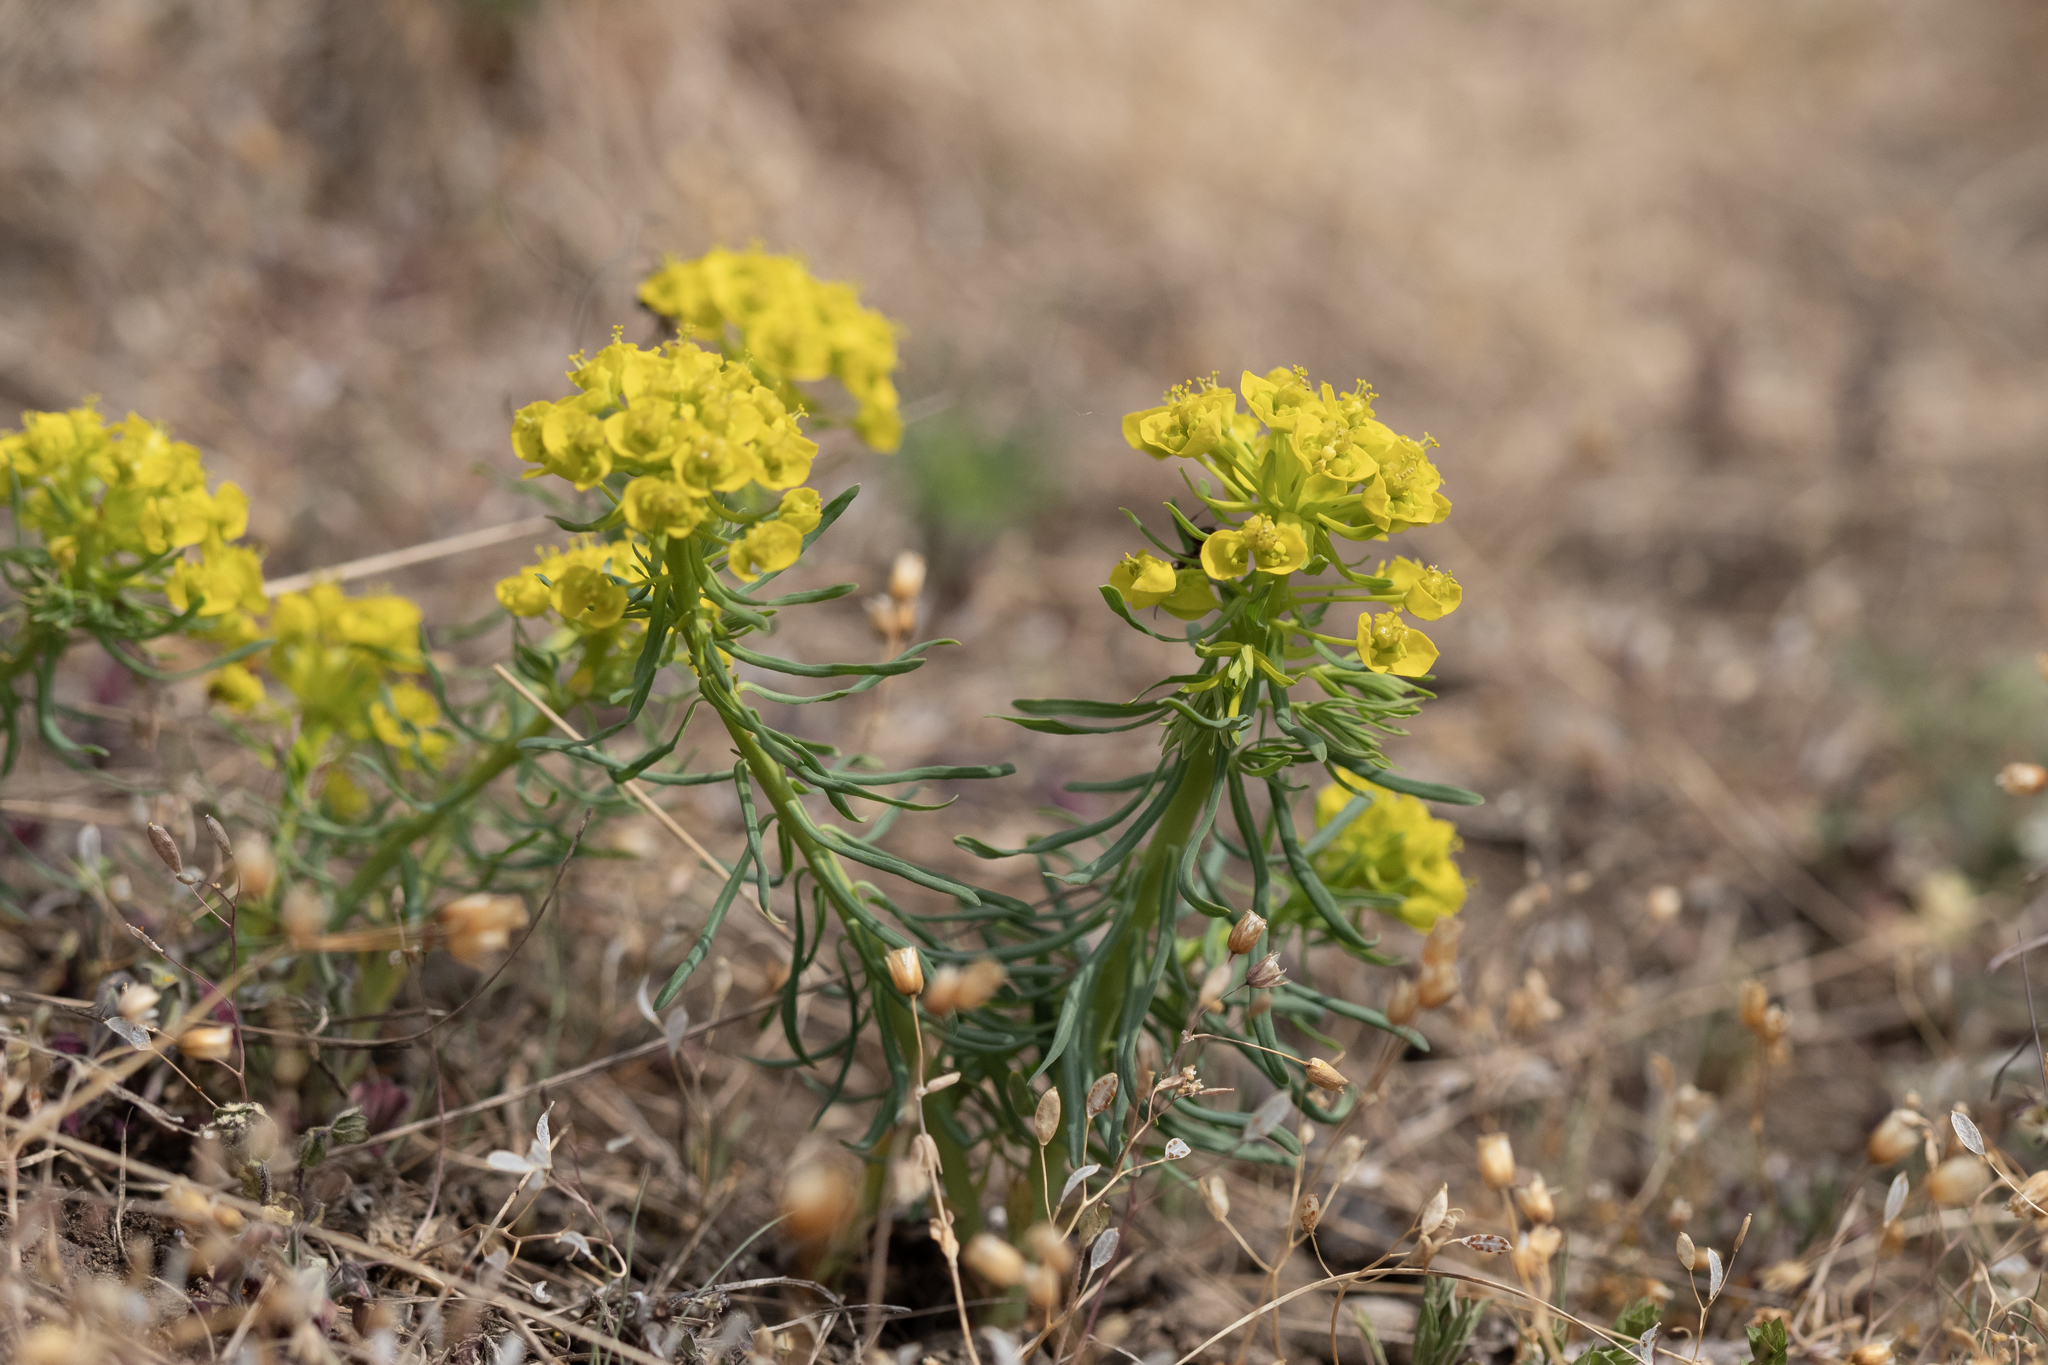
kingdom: Plantae
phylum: Tracheophyta
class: Magnoliopsida
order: Malpighiales
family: Euphorbiaceae
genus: Euphorbia
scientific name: Euphorbia cyparissias
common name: Cypress spurge
